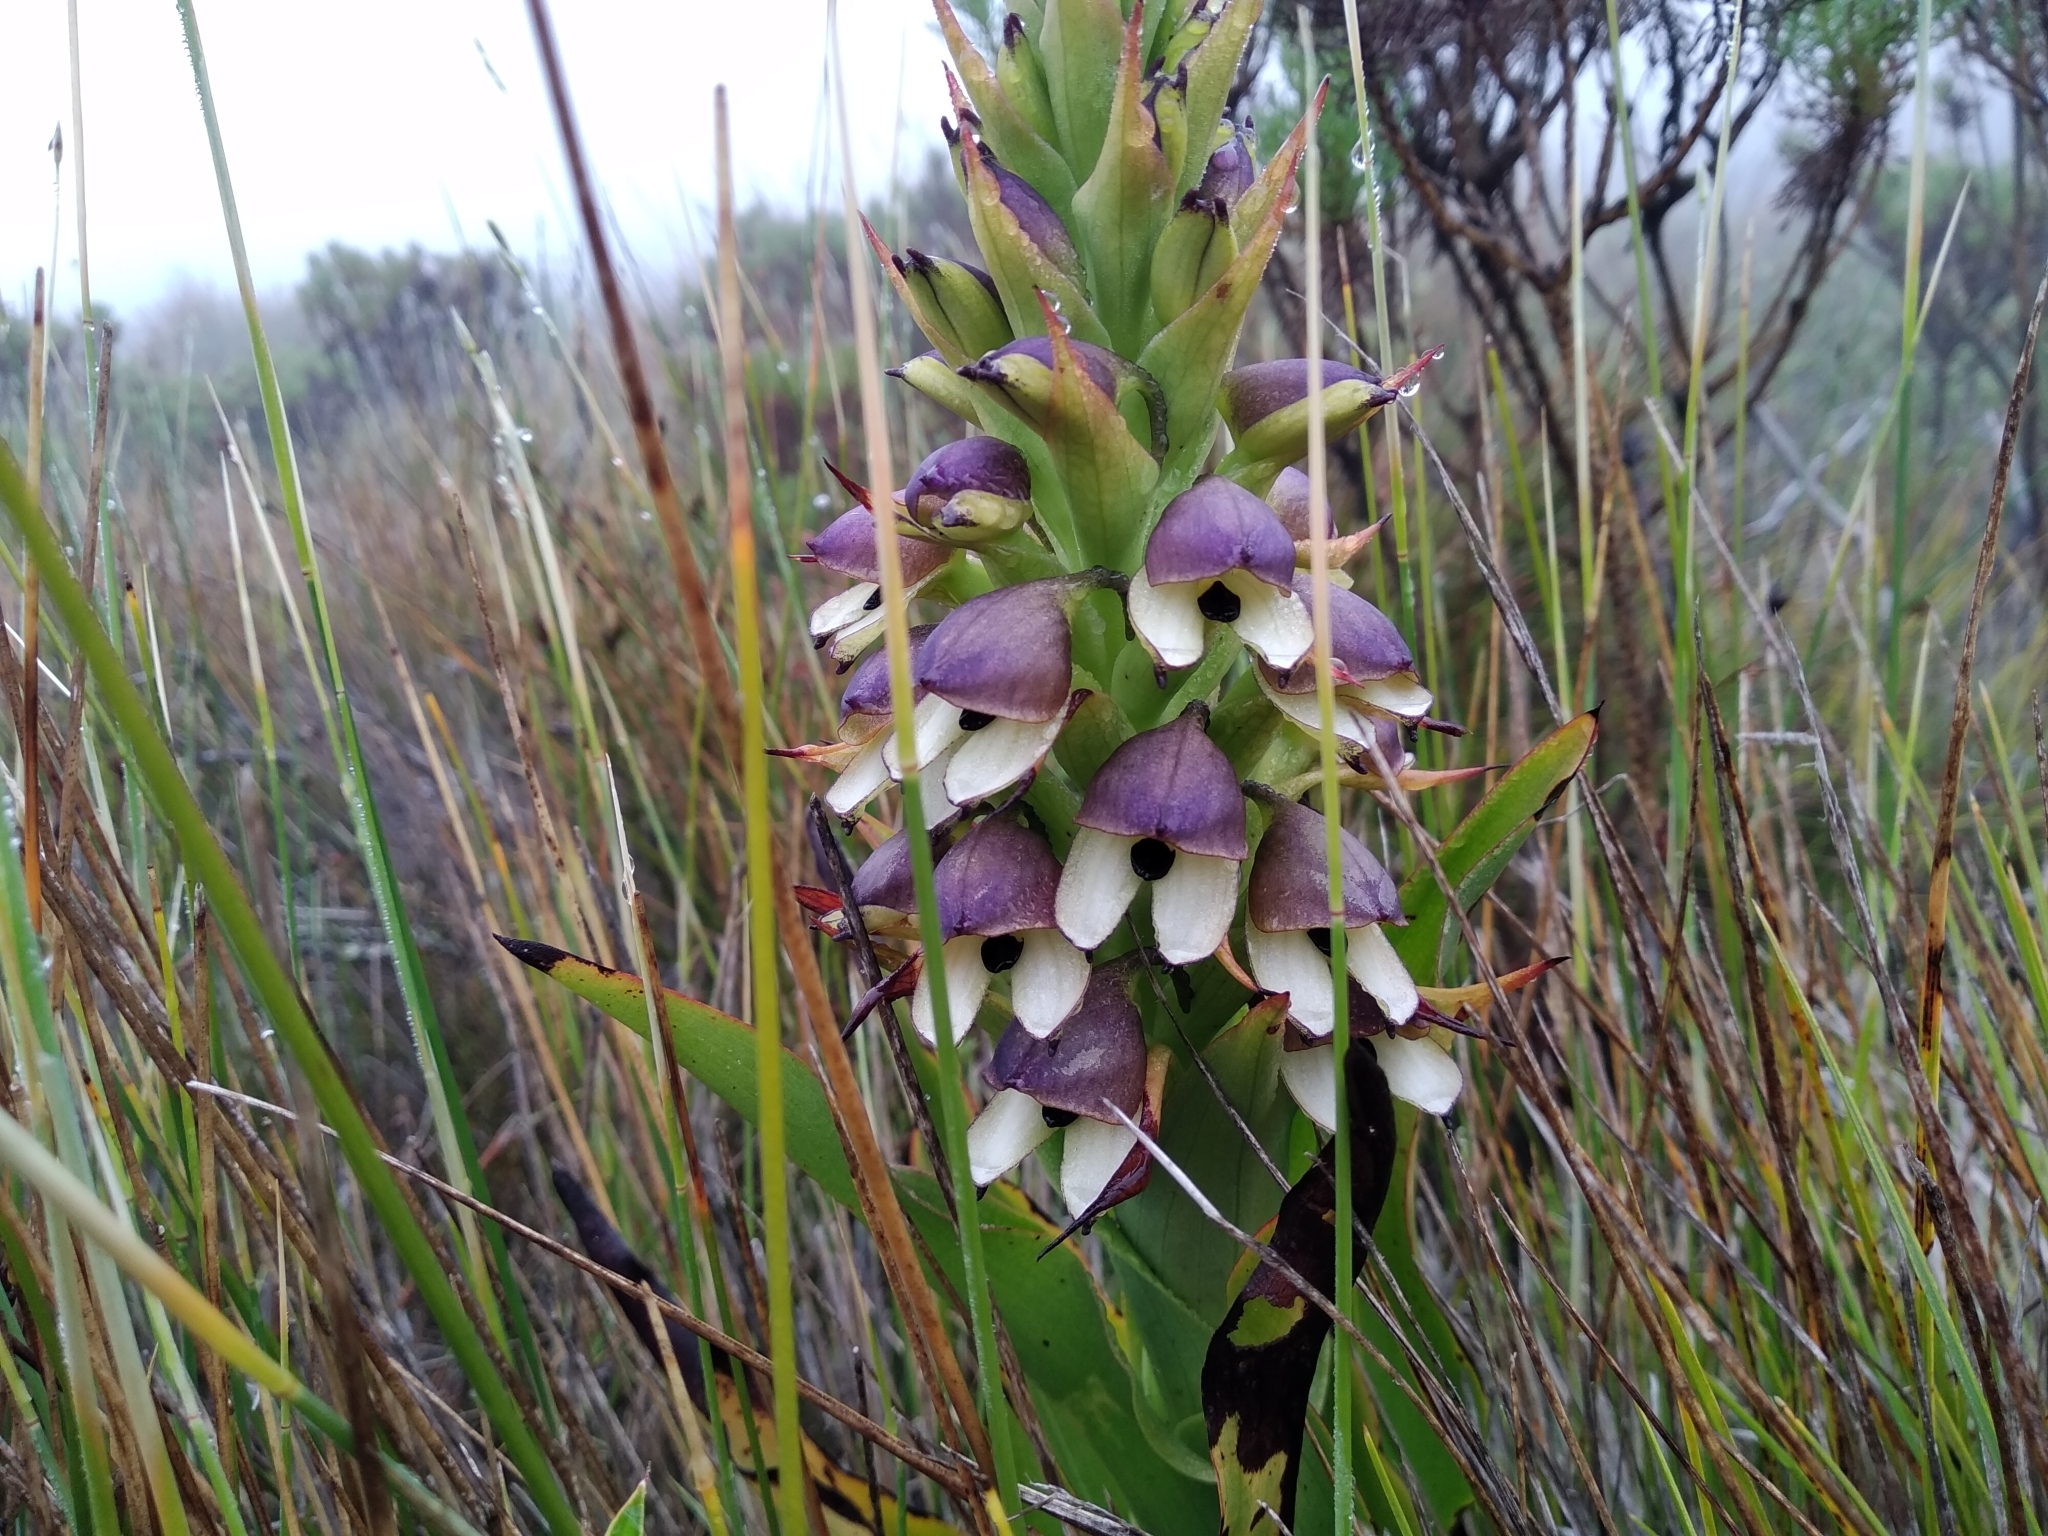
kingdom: Plantae
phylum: Tracheophyta
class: Liliopsida
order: Asparagales
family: Orchidaceae
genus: Disa
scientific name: Disa cornuta
